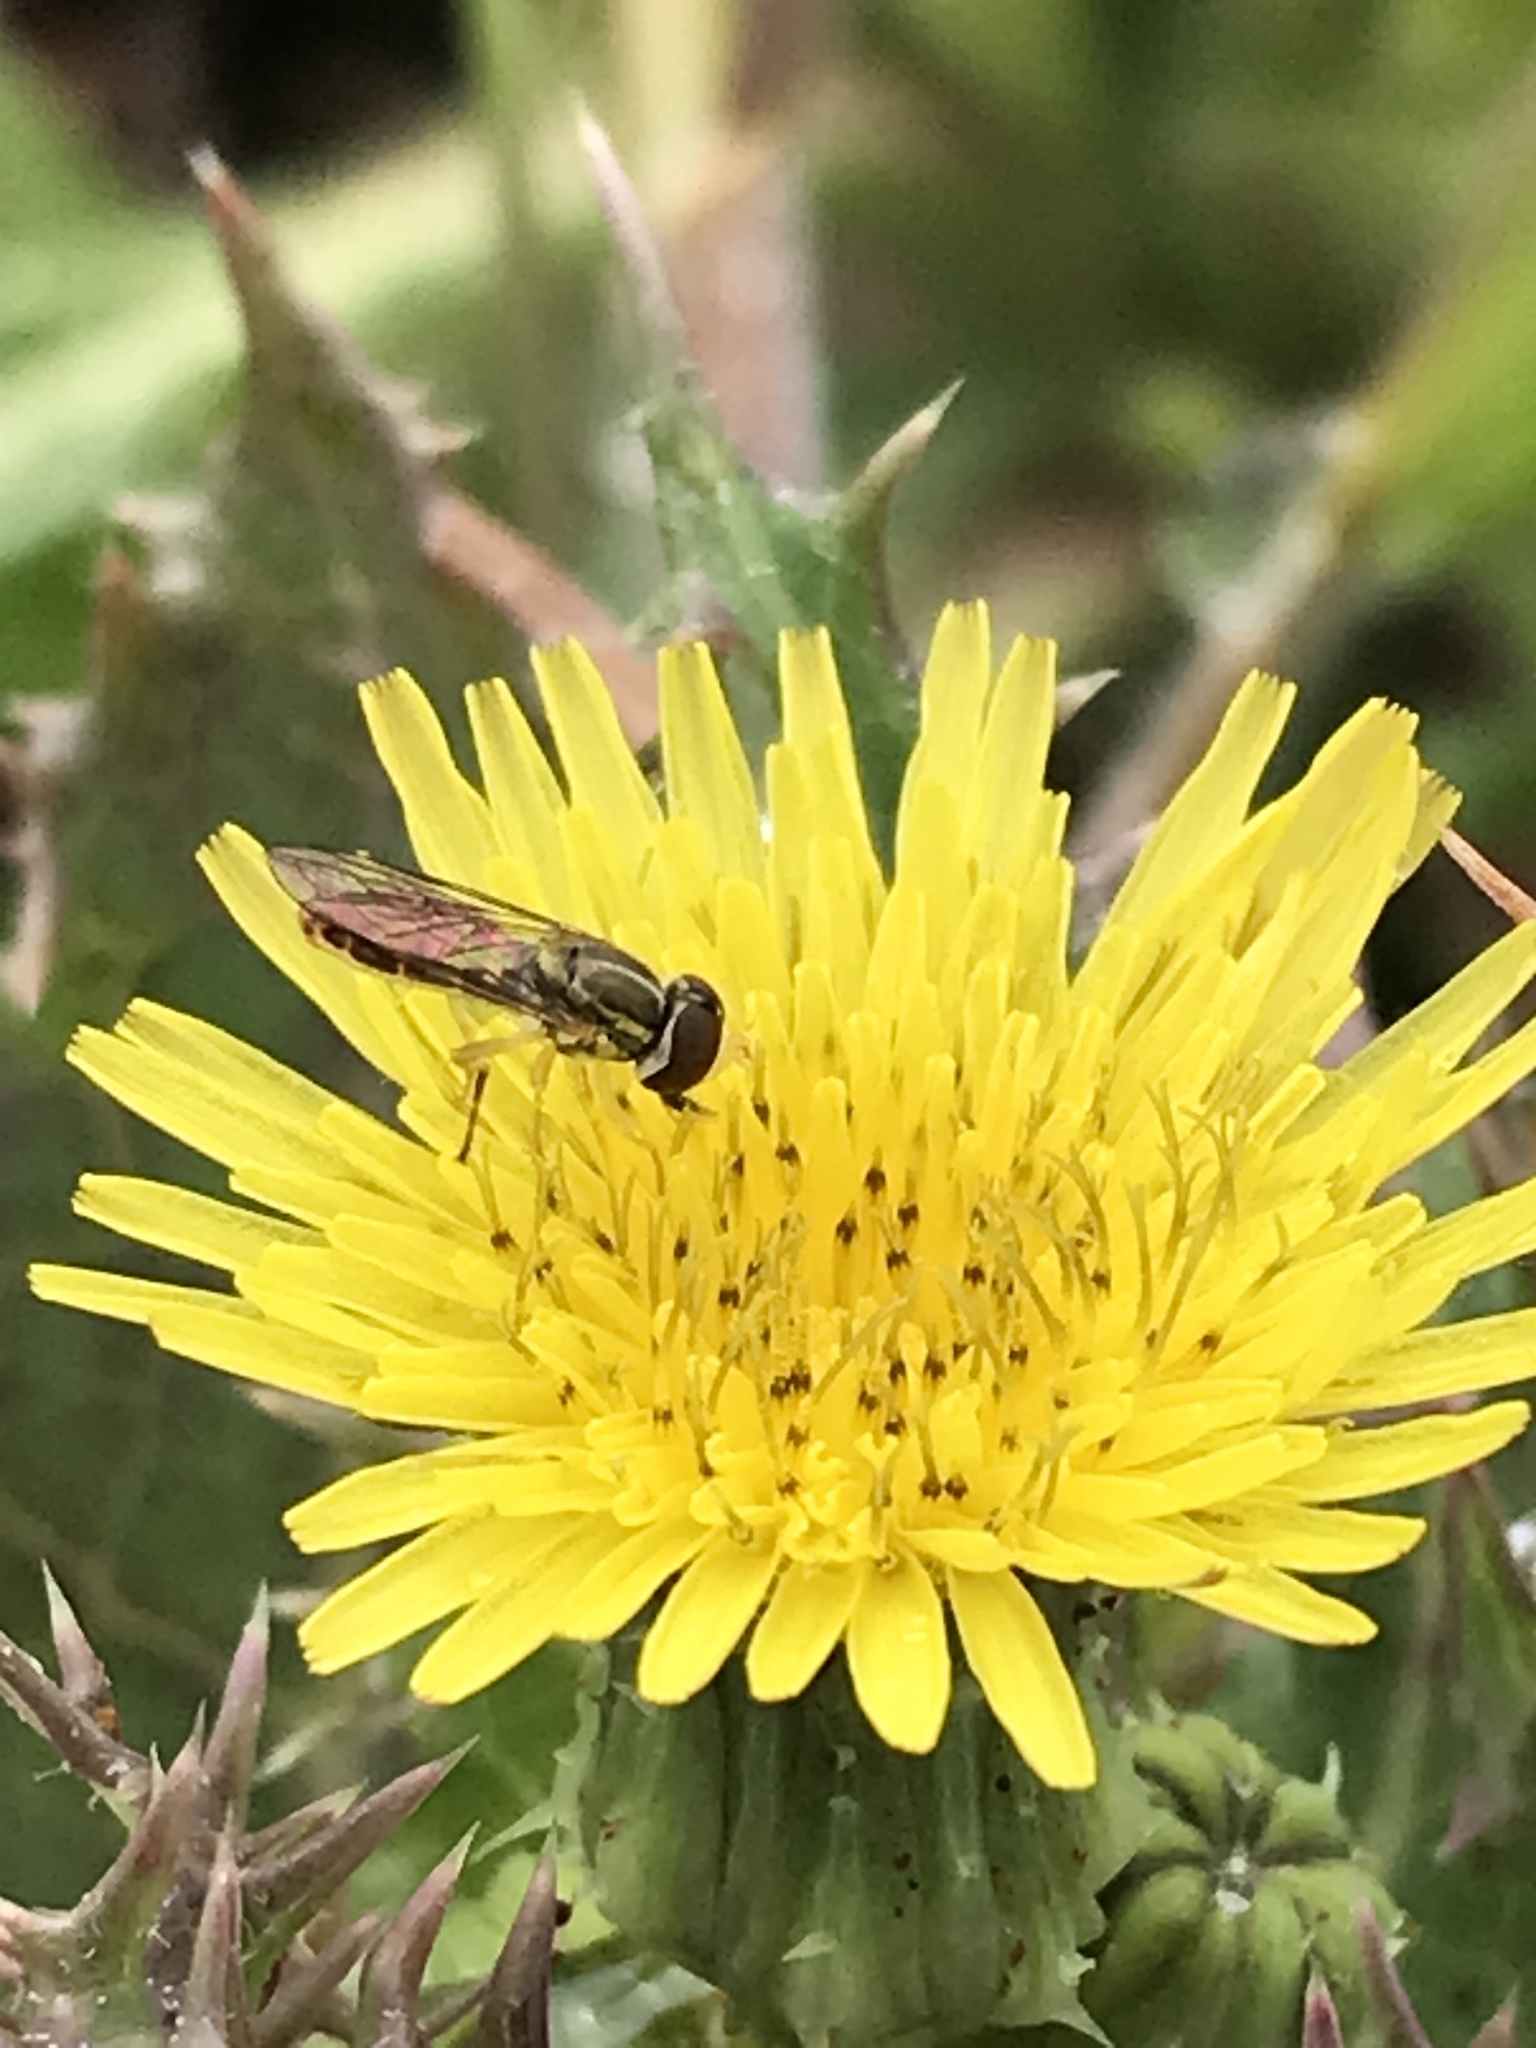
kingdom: Animalia
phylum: Arthropoda
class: Insecta
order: Diptera
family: Syrphidae
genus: Toxomerus
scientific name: Toxomerus marginatus
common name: Syrphid fly
